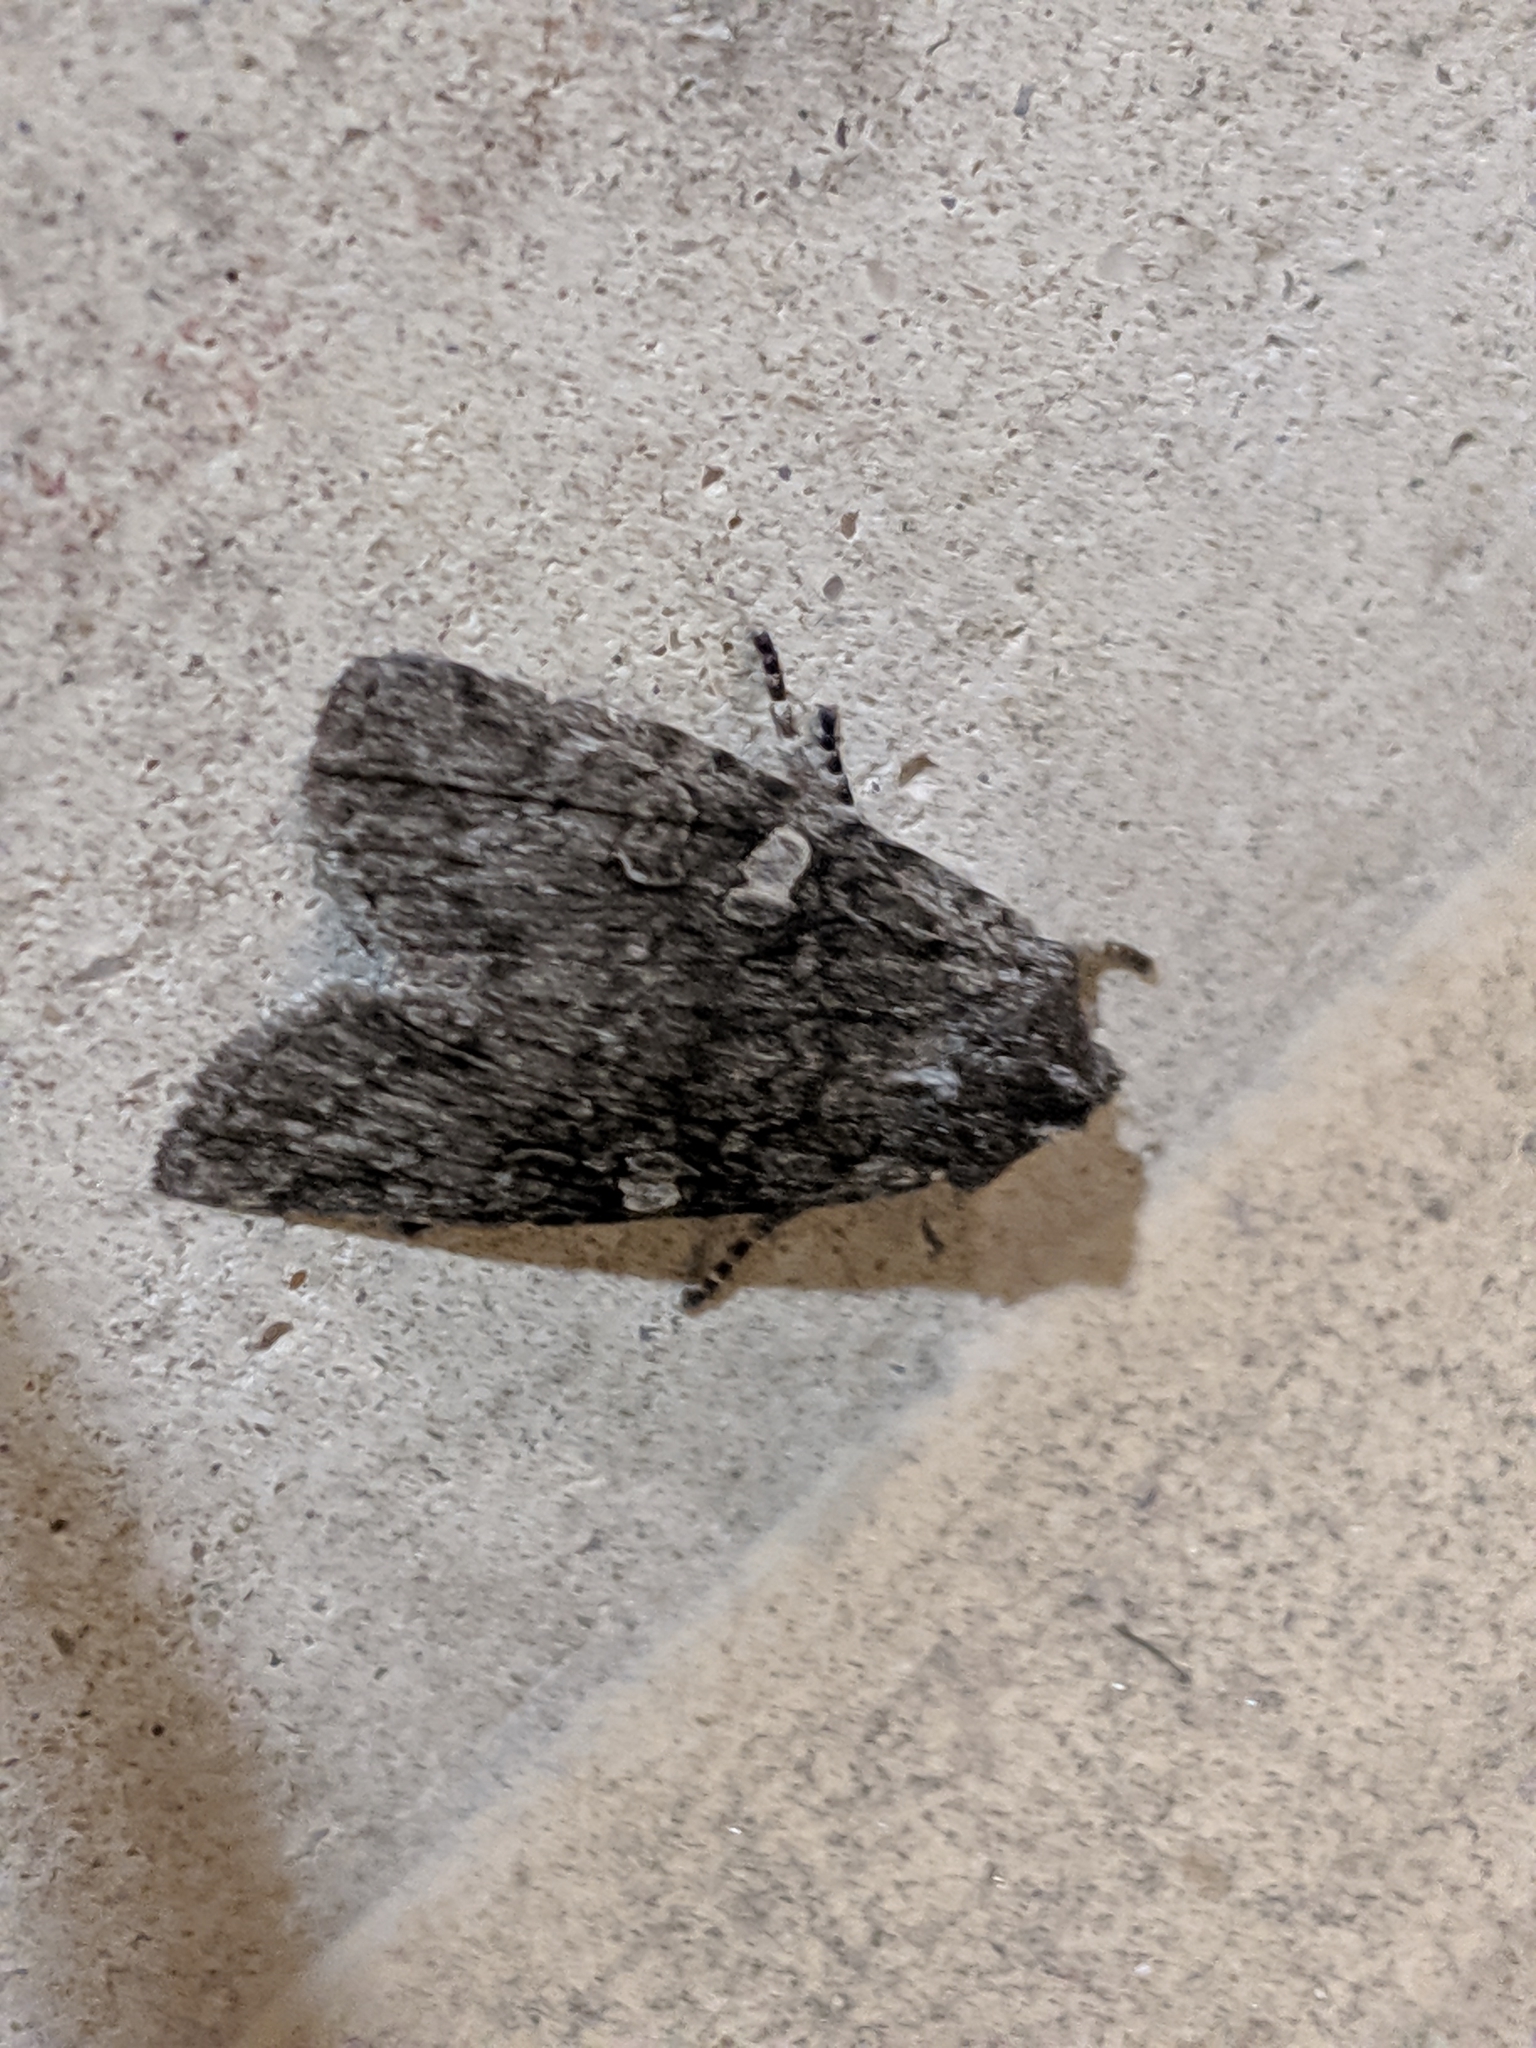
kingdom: Animalia
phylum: Arthropoda
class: Insecta
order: Lepidoptera
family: Noctuidae
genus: Lithophane
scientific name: Lithophane grotei
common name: Grote's pinion moth
